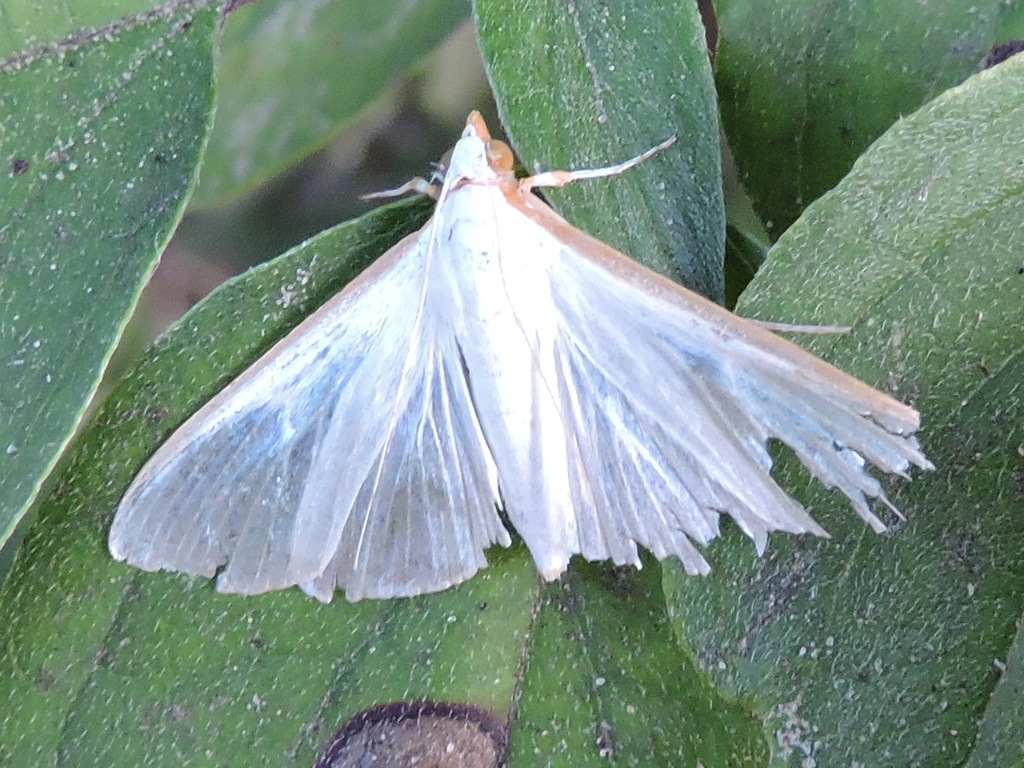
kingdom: Animalia
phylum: Arthropoda
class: Insecta
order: Lepidoptera
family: Crambidae
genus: Diaphania
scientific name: Diaphania costata
